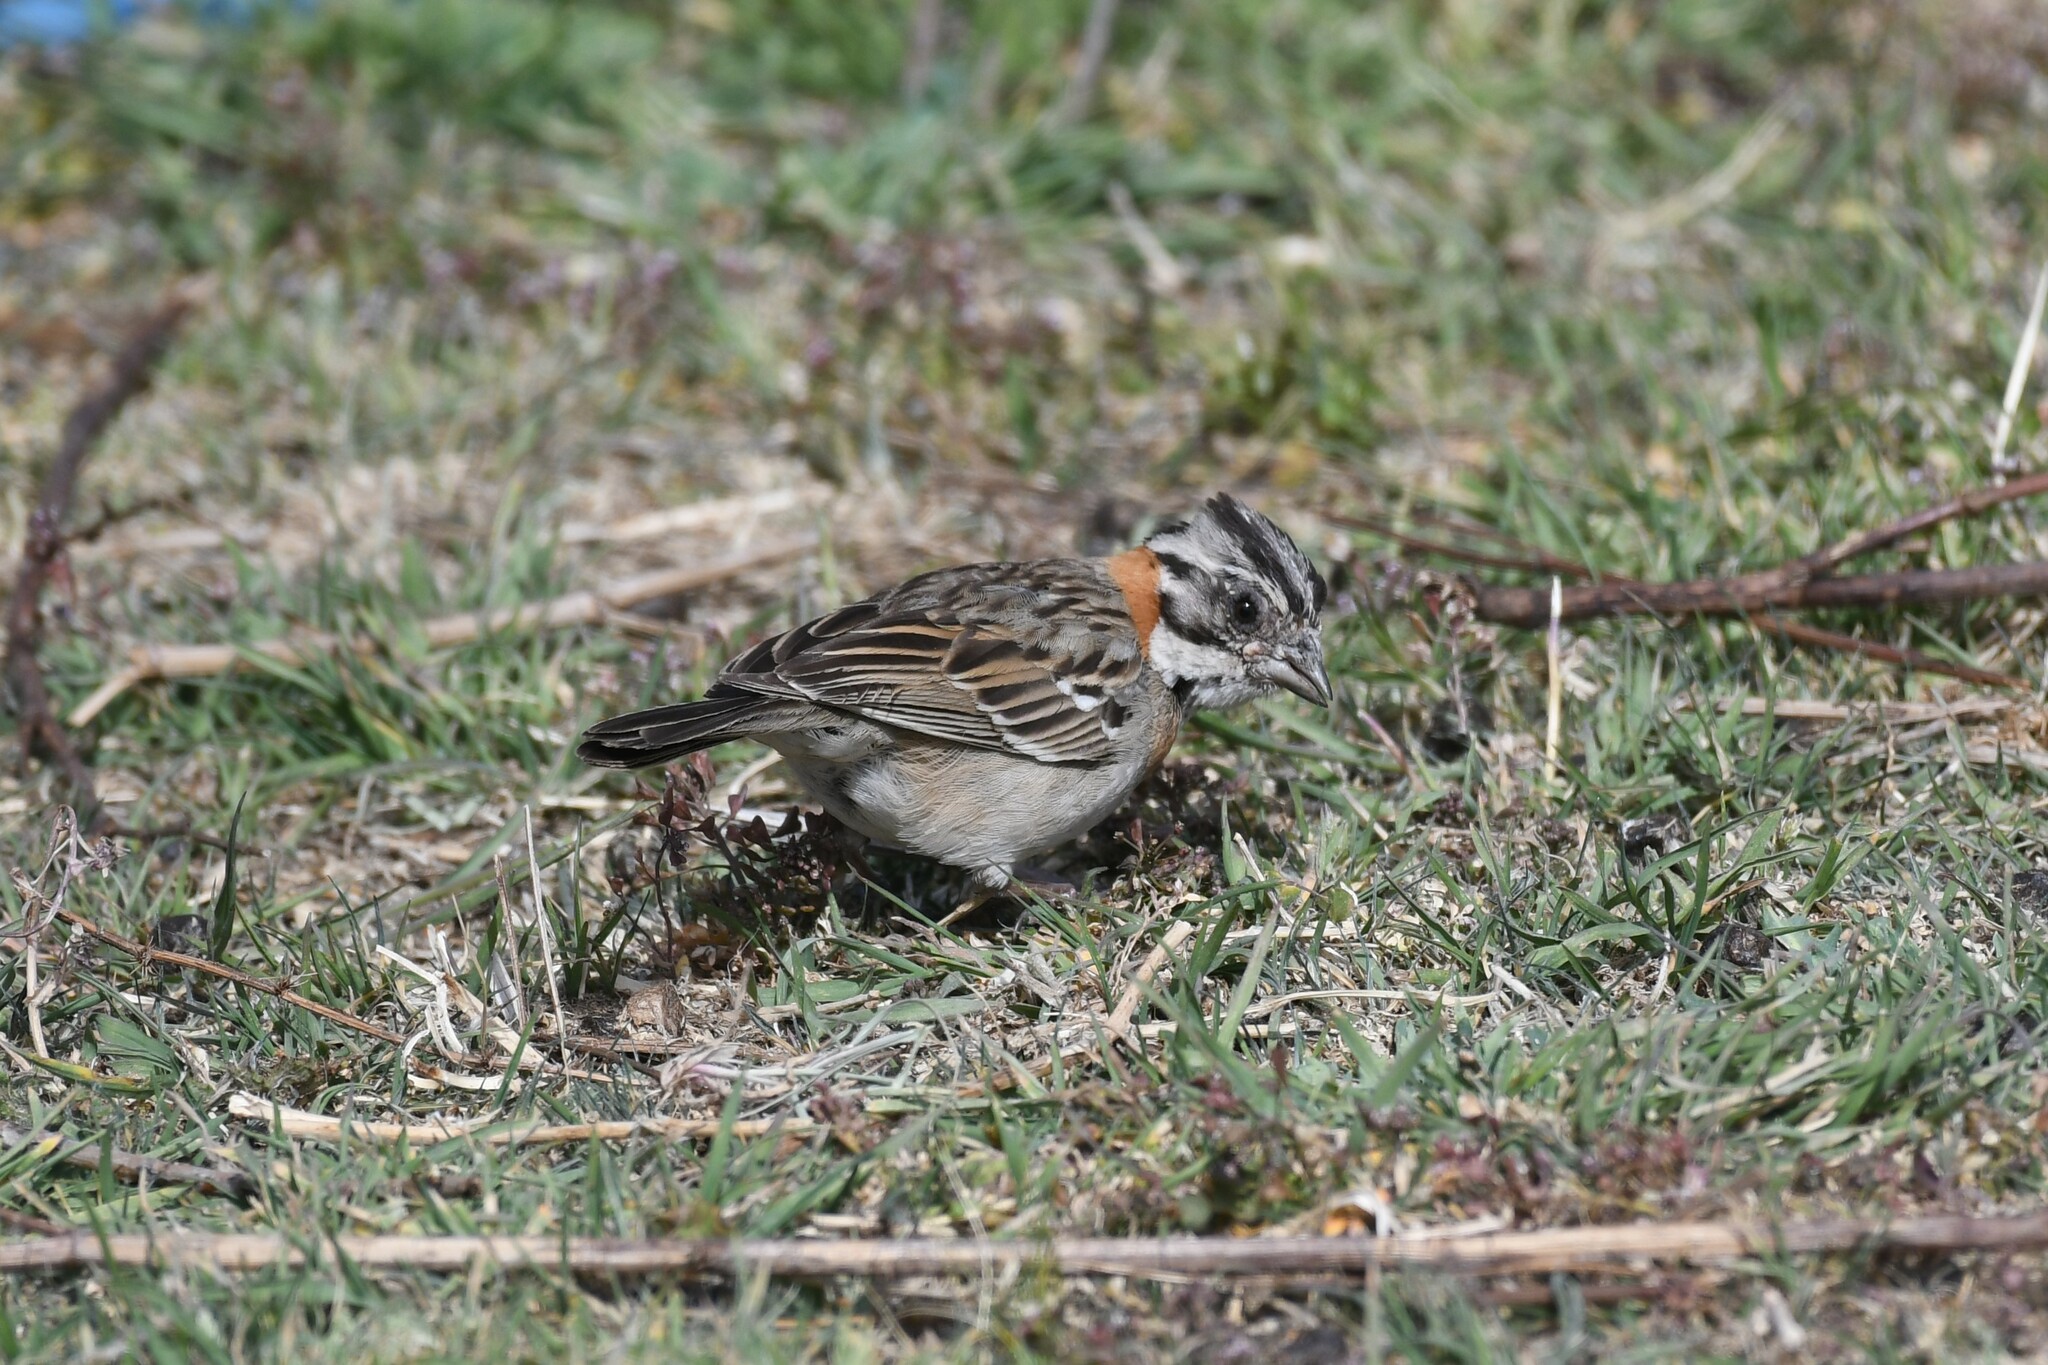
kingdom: Animalia
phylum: Chordata
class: Aves
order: Passeriformes
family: Passerellidae
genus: Zonotrichia
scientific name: Zonotrichia capensis
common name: Rufous-collared sparrow
